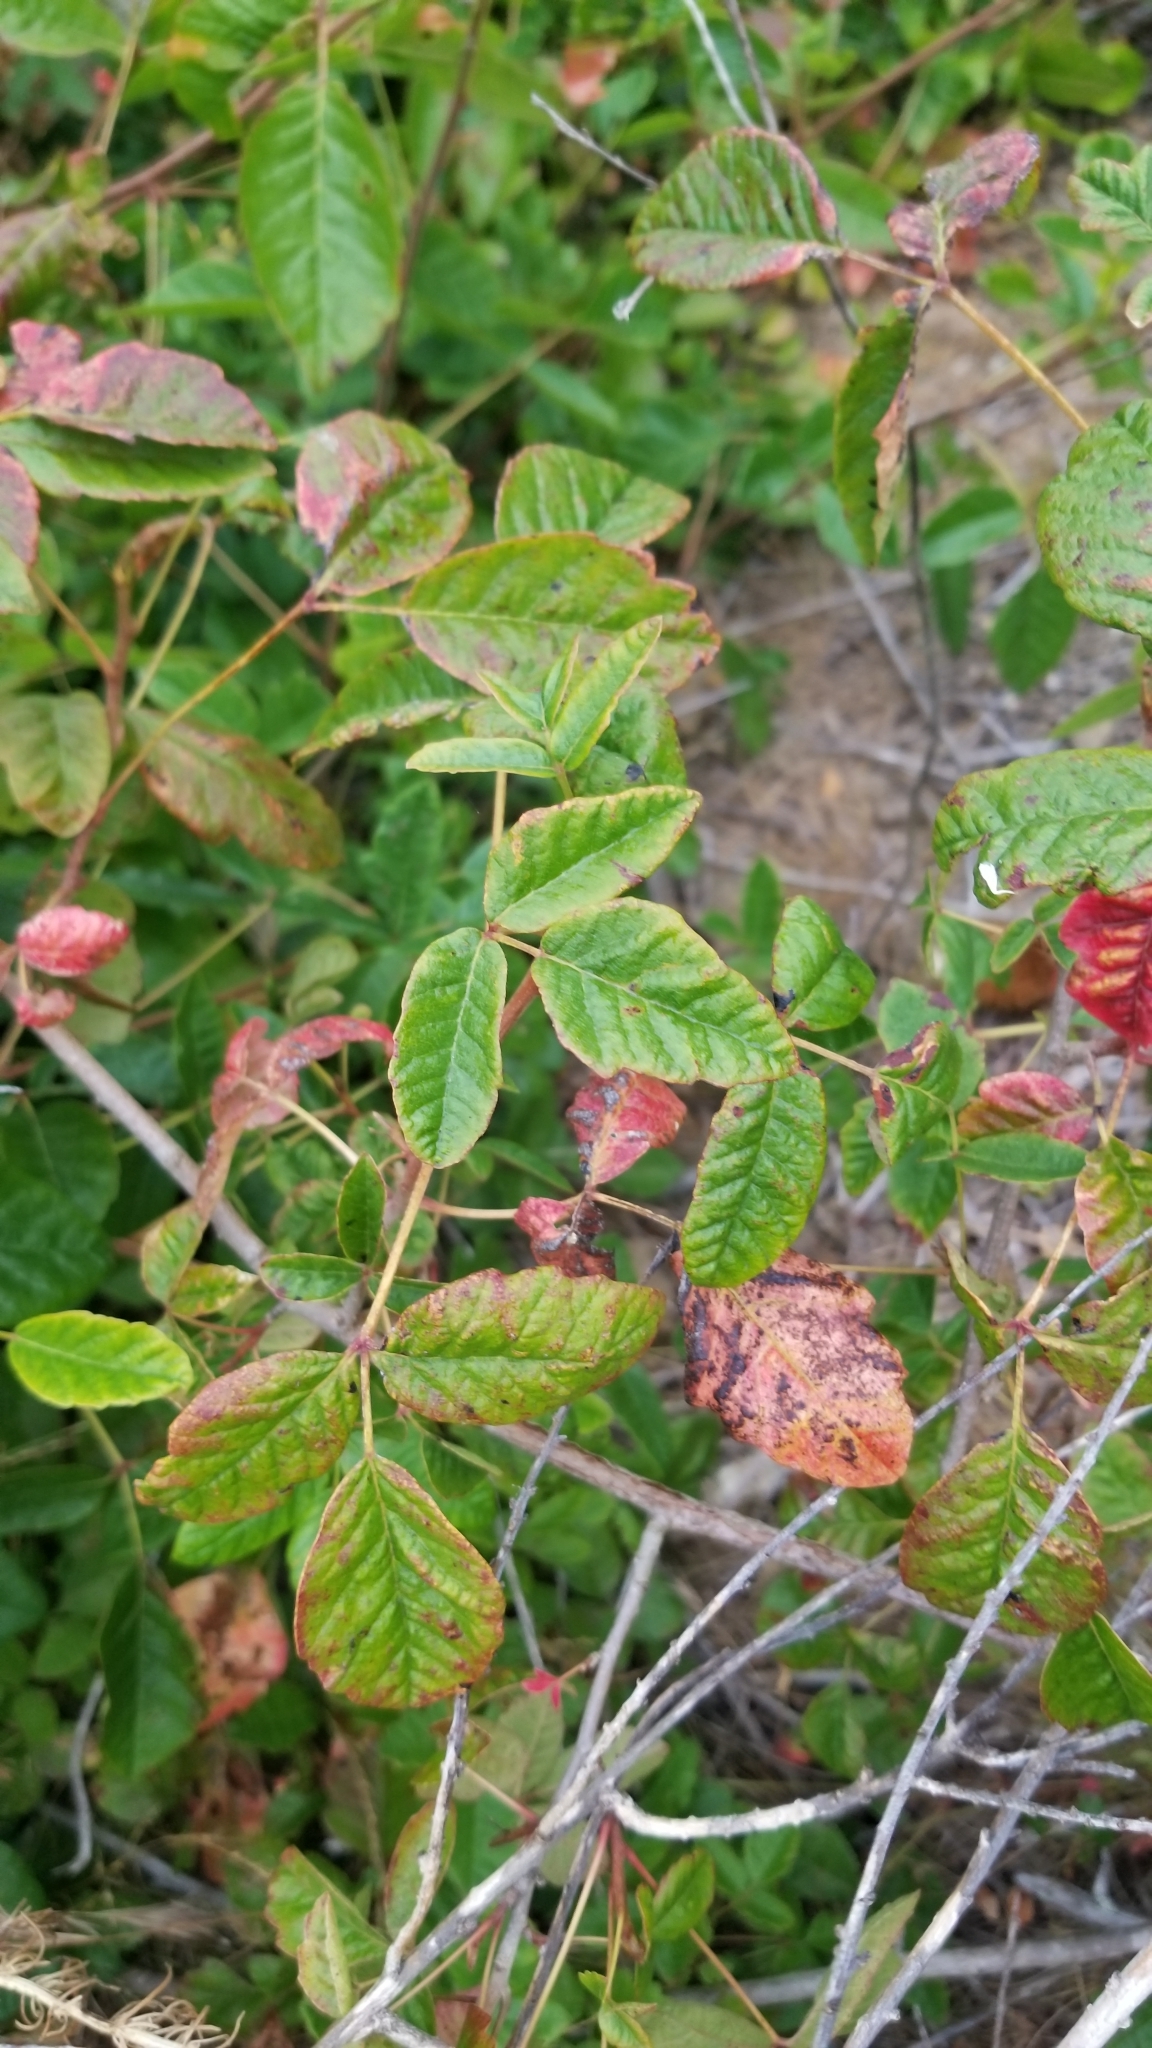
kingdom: Plantae
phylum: Tracheophyta
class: Magnoliopsida
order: Sapindales
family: Anacardiaceae
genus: Toxicodendron
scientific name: Toxicodendron diversilobum
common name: Pacific poison-oak
